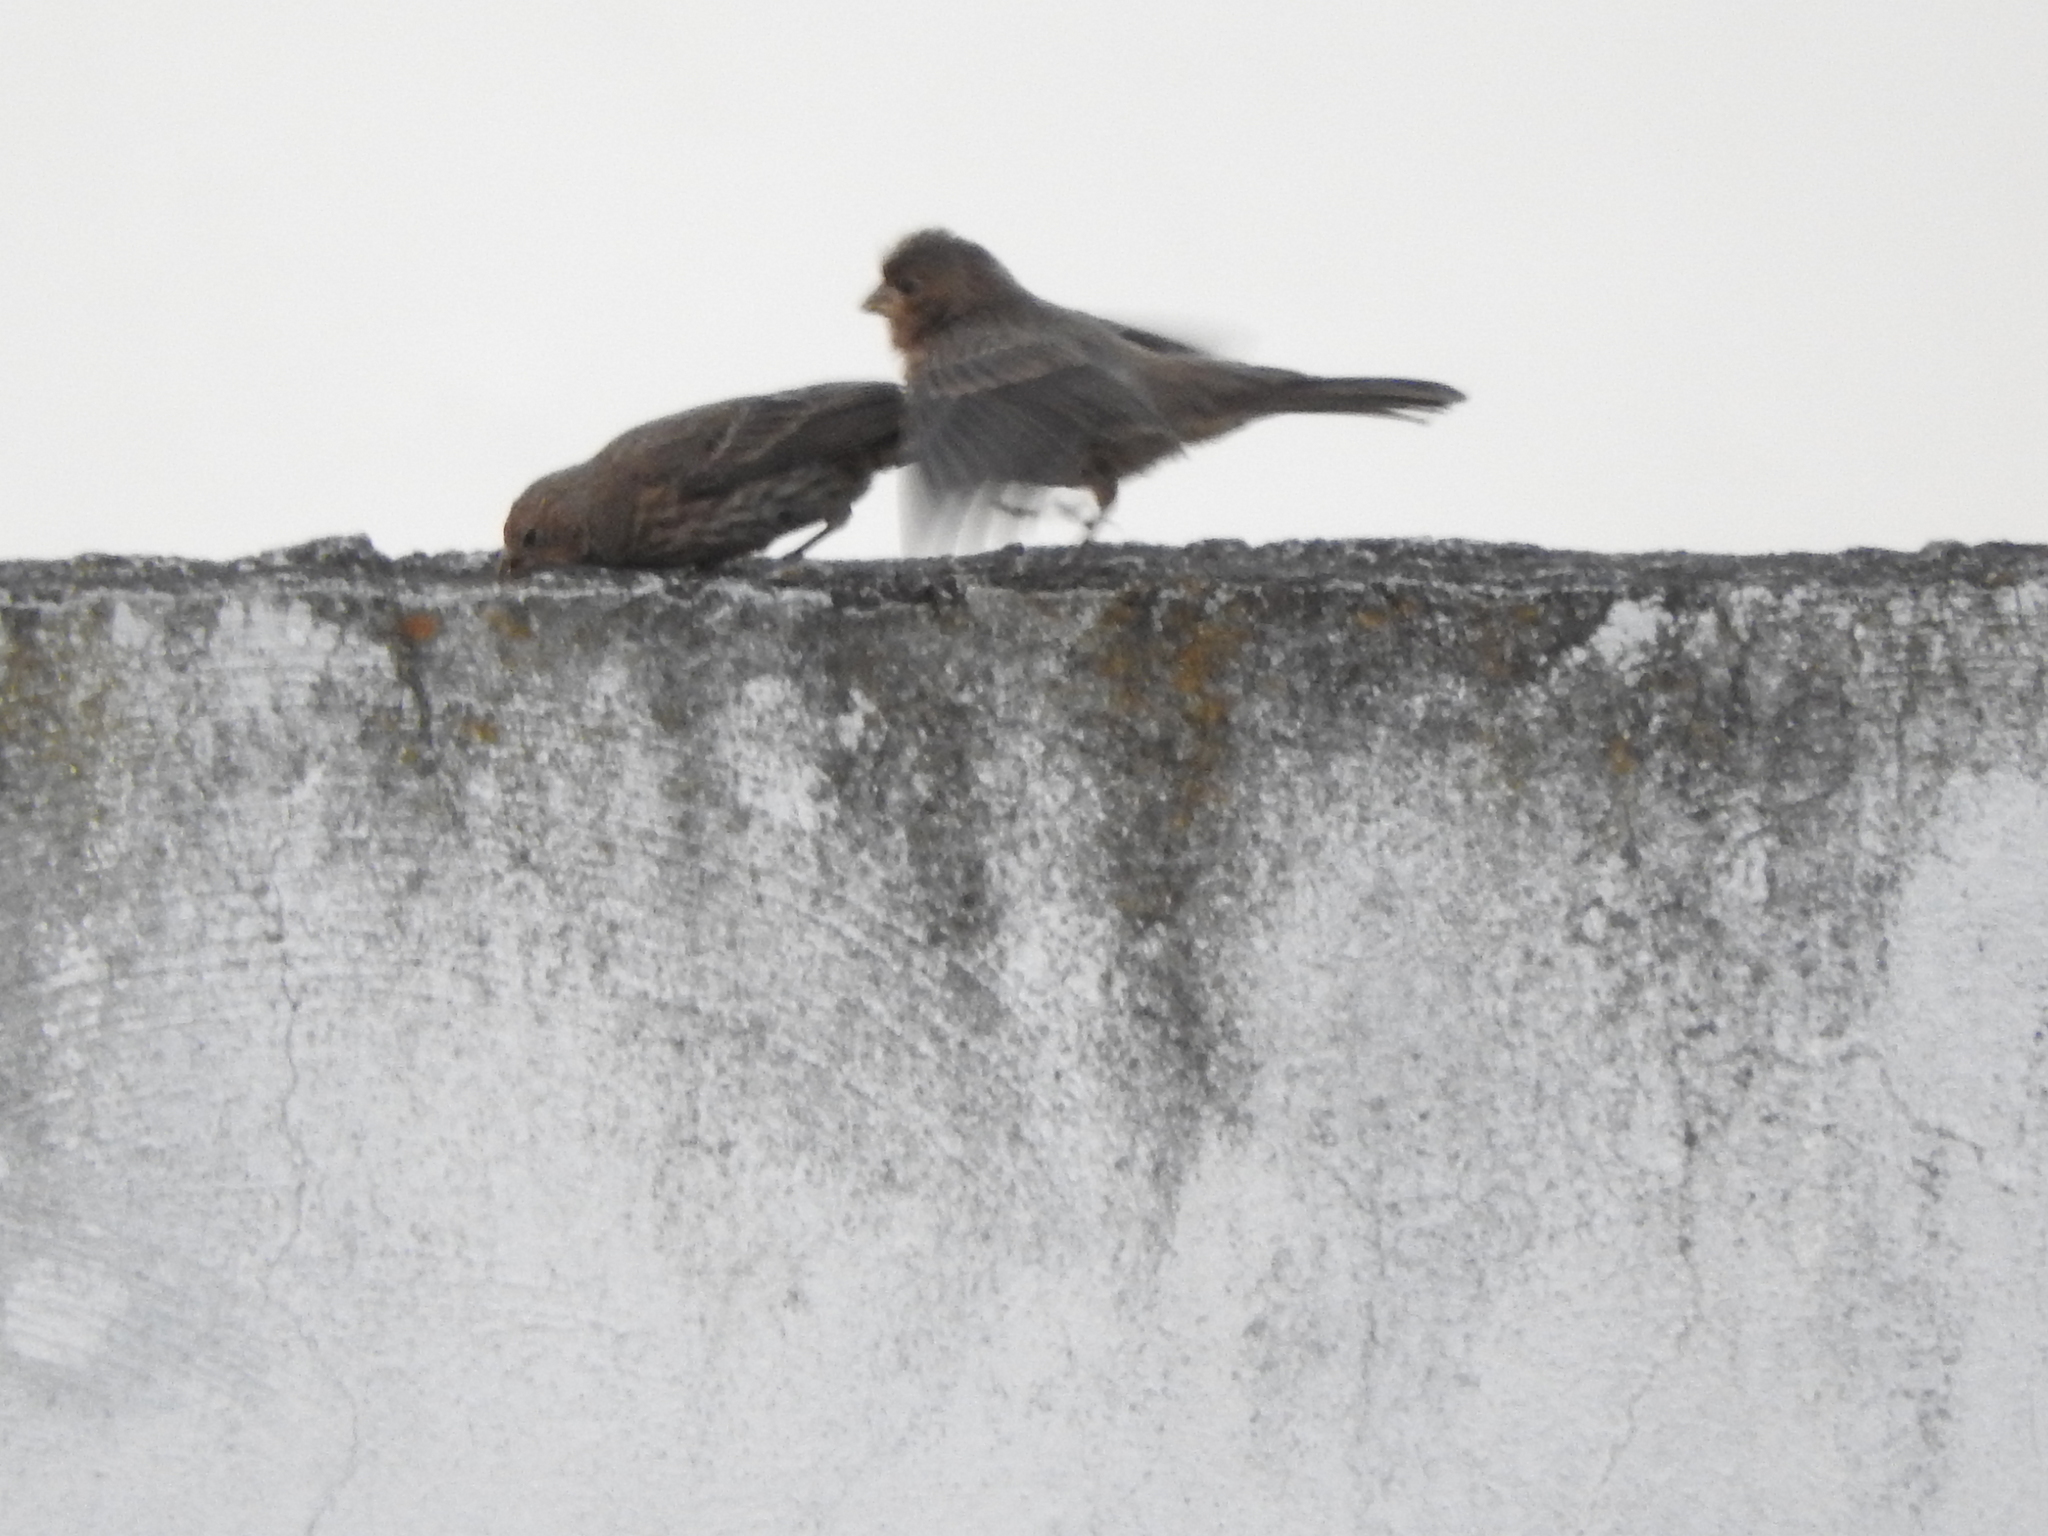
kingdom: Animalia
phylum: Chordata
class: Aves
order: Passeriformes
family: Fringillidae
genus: Haemorhous
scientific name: Haemorhous mexicanus
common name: House finch
